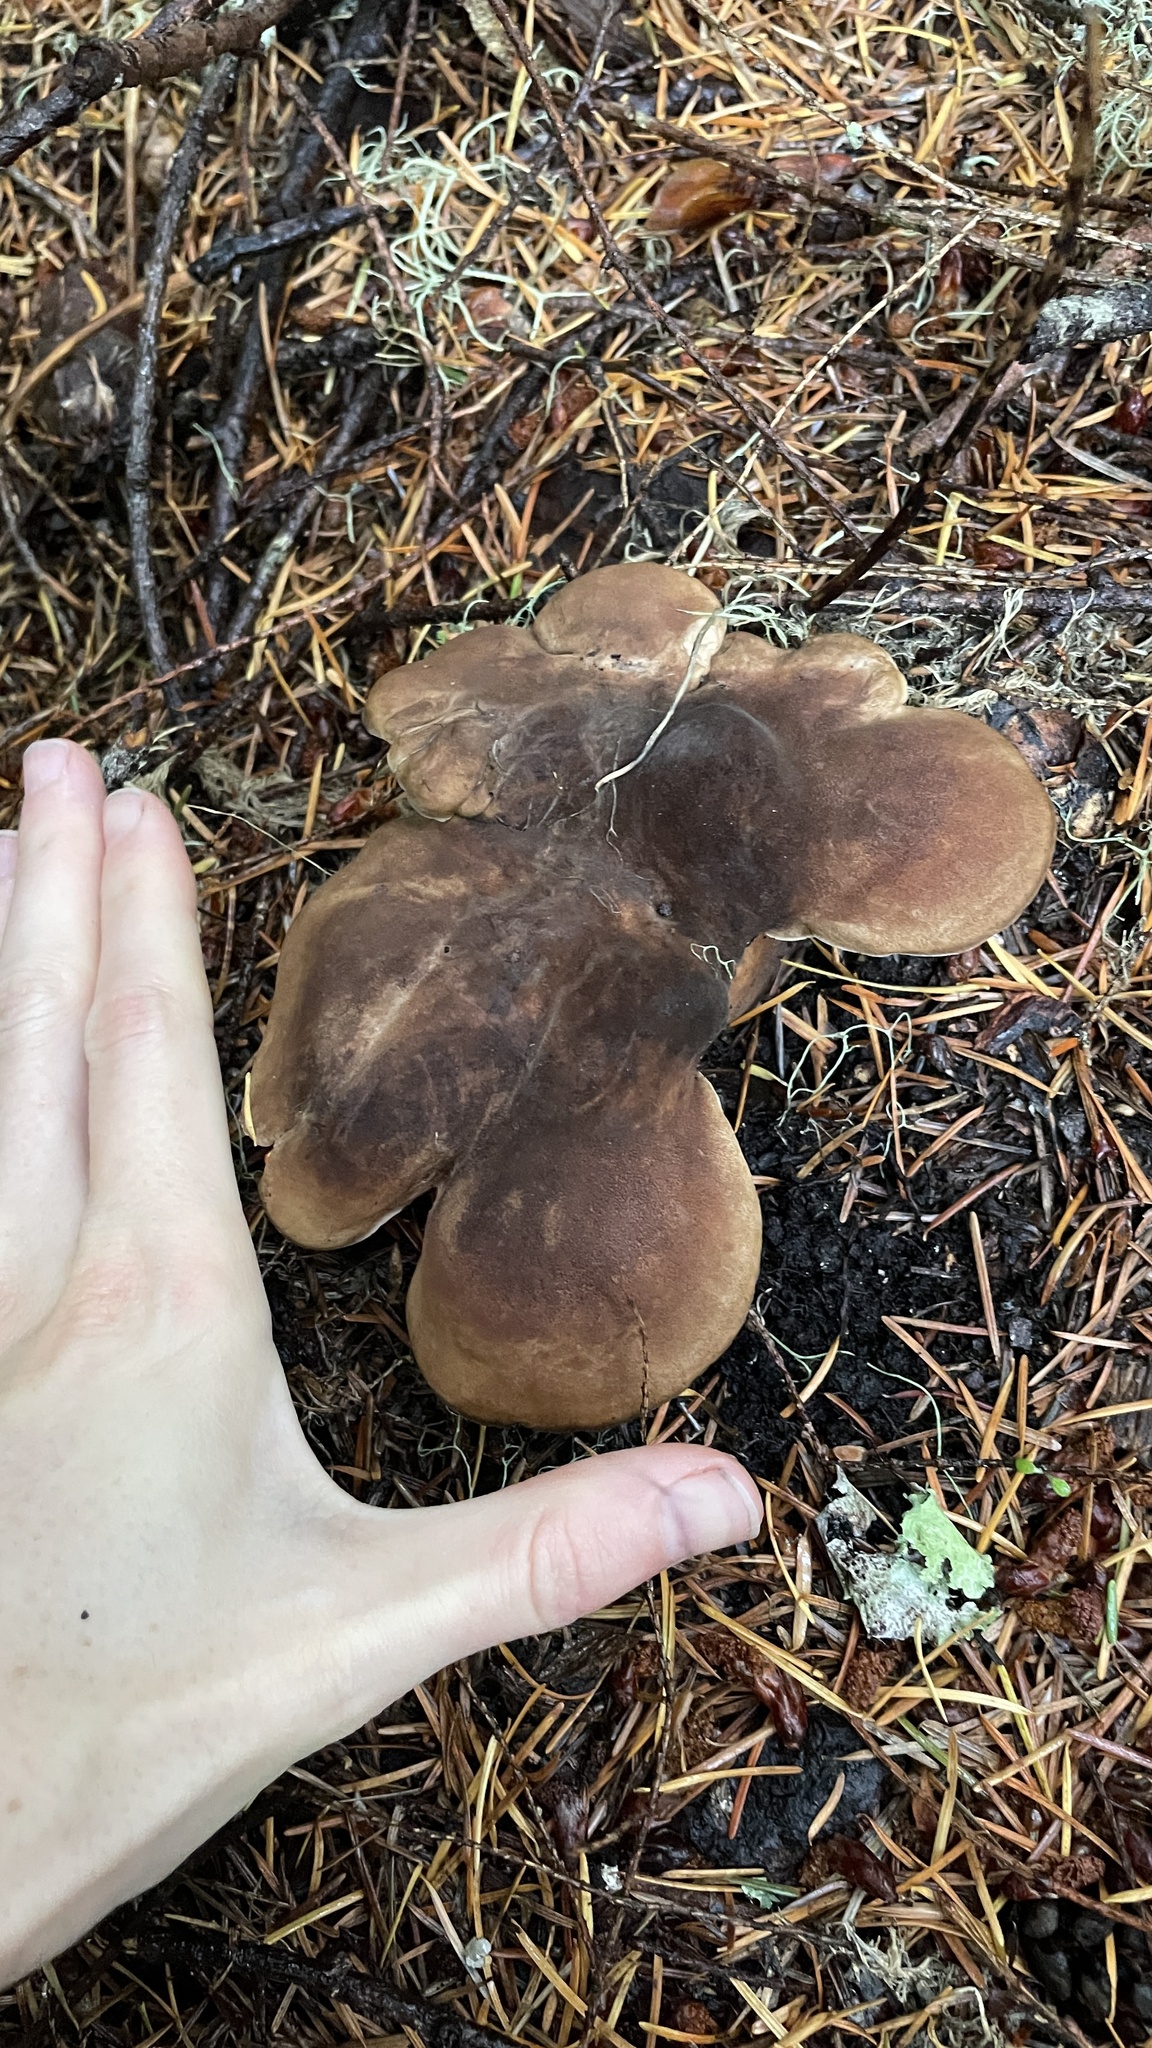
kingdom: Fungi
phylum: Basidiomycota
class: Agaricomycetes
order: Polyporales
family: Dacryobolaceae
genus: Jahnoporus
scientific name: Jahnoporus hirtus
